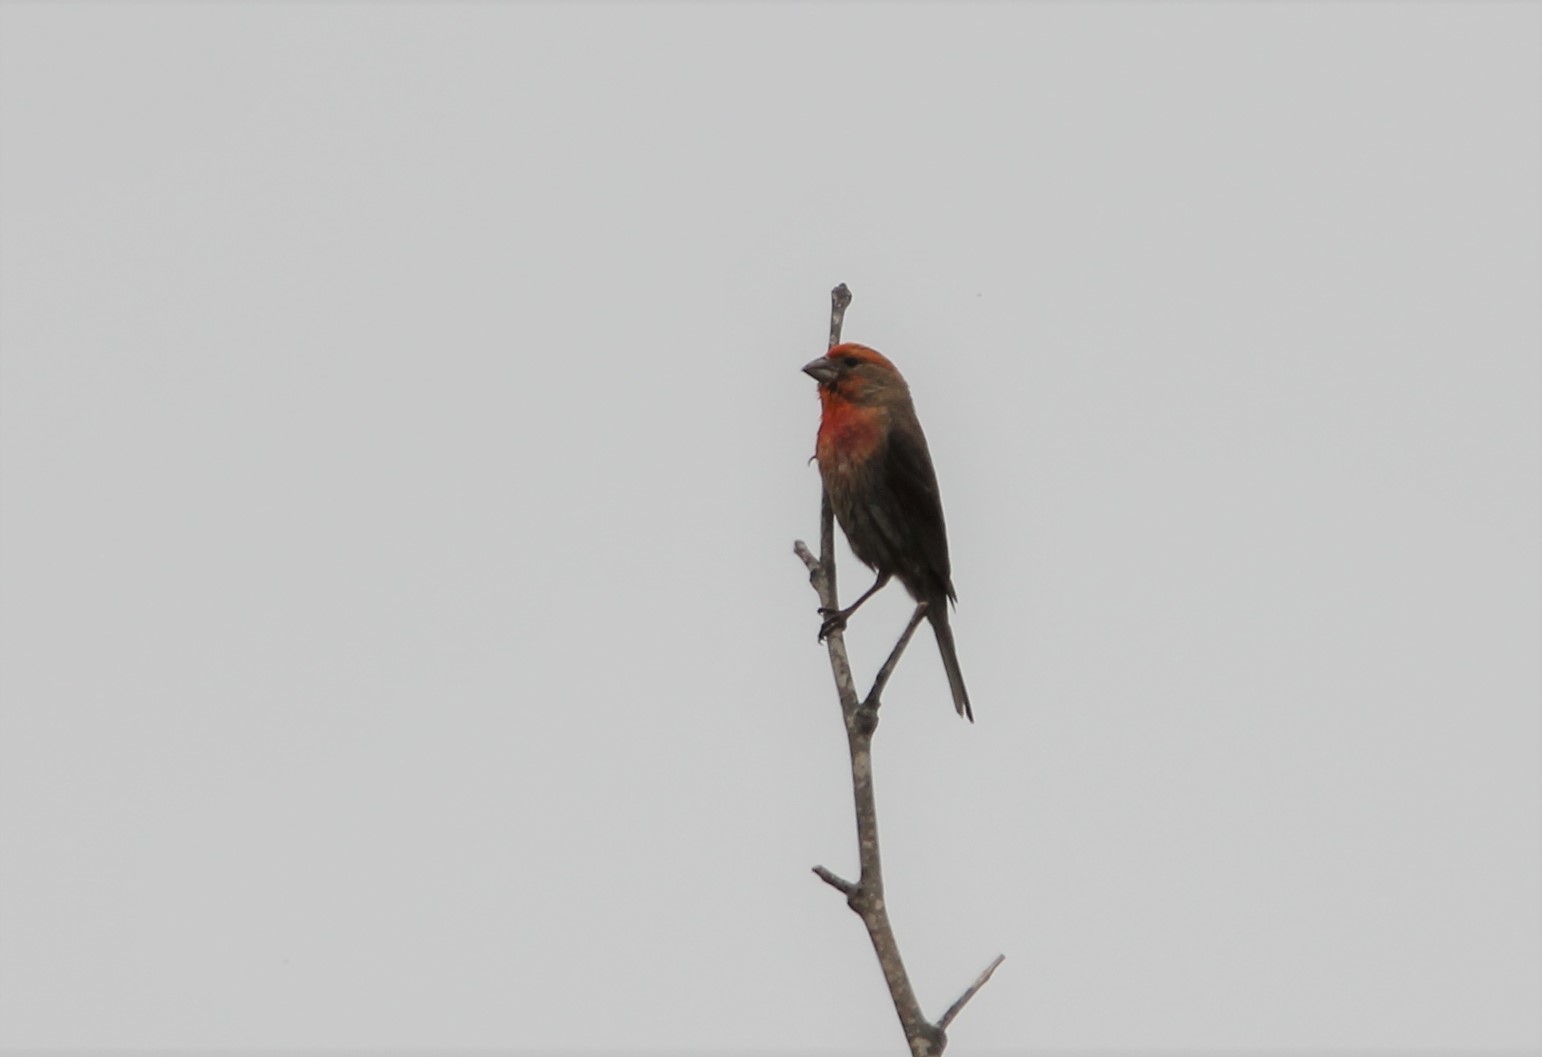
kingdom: Animalia
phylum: Chordata
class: Aves
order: Passeriformes
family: Fringillidae
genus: Haemorhous
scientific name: Haemorhous mexicanus
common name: House finch
